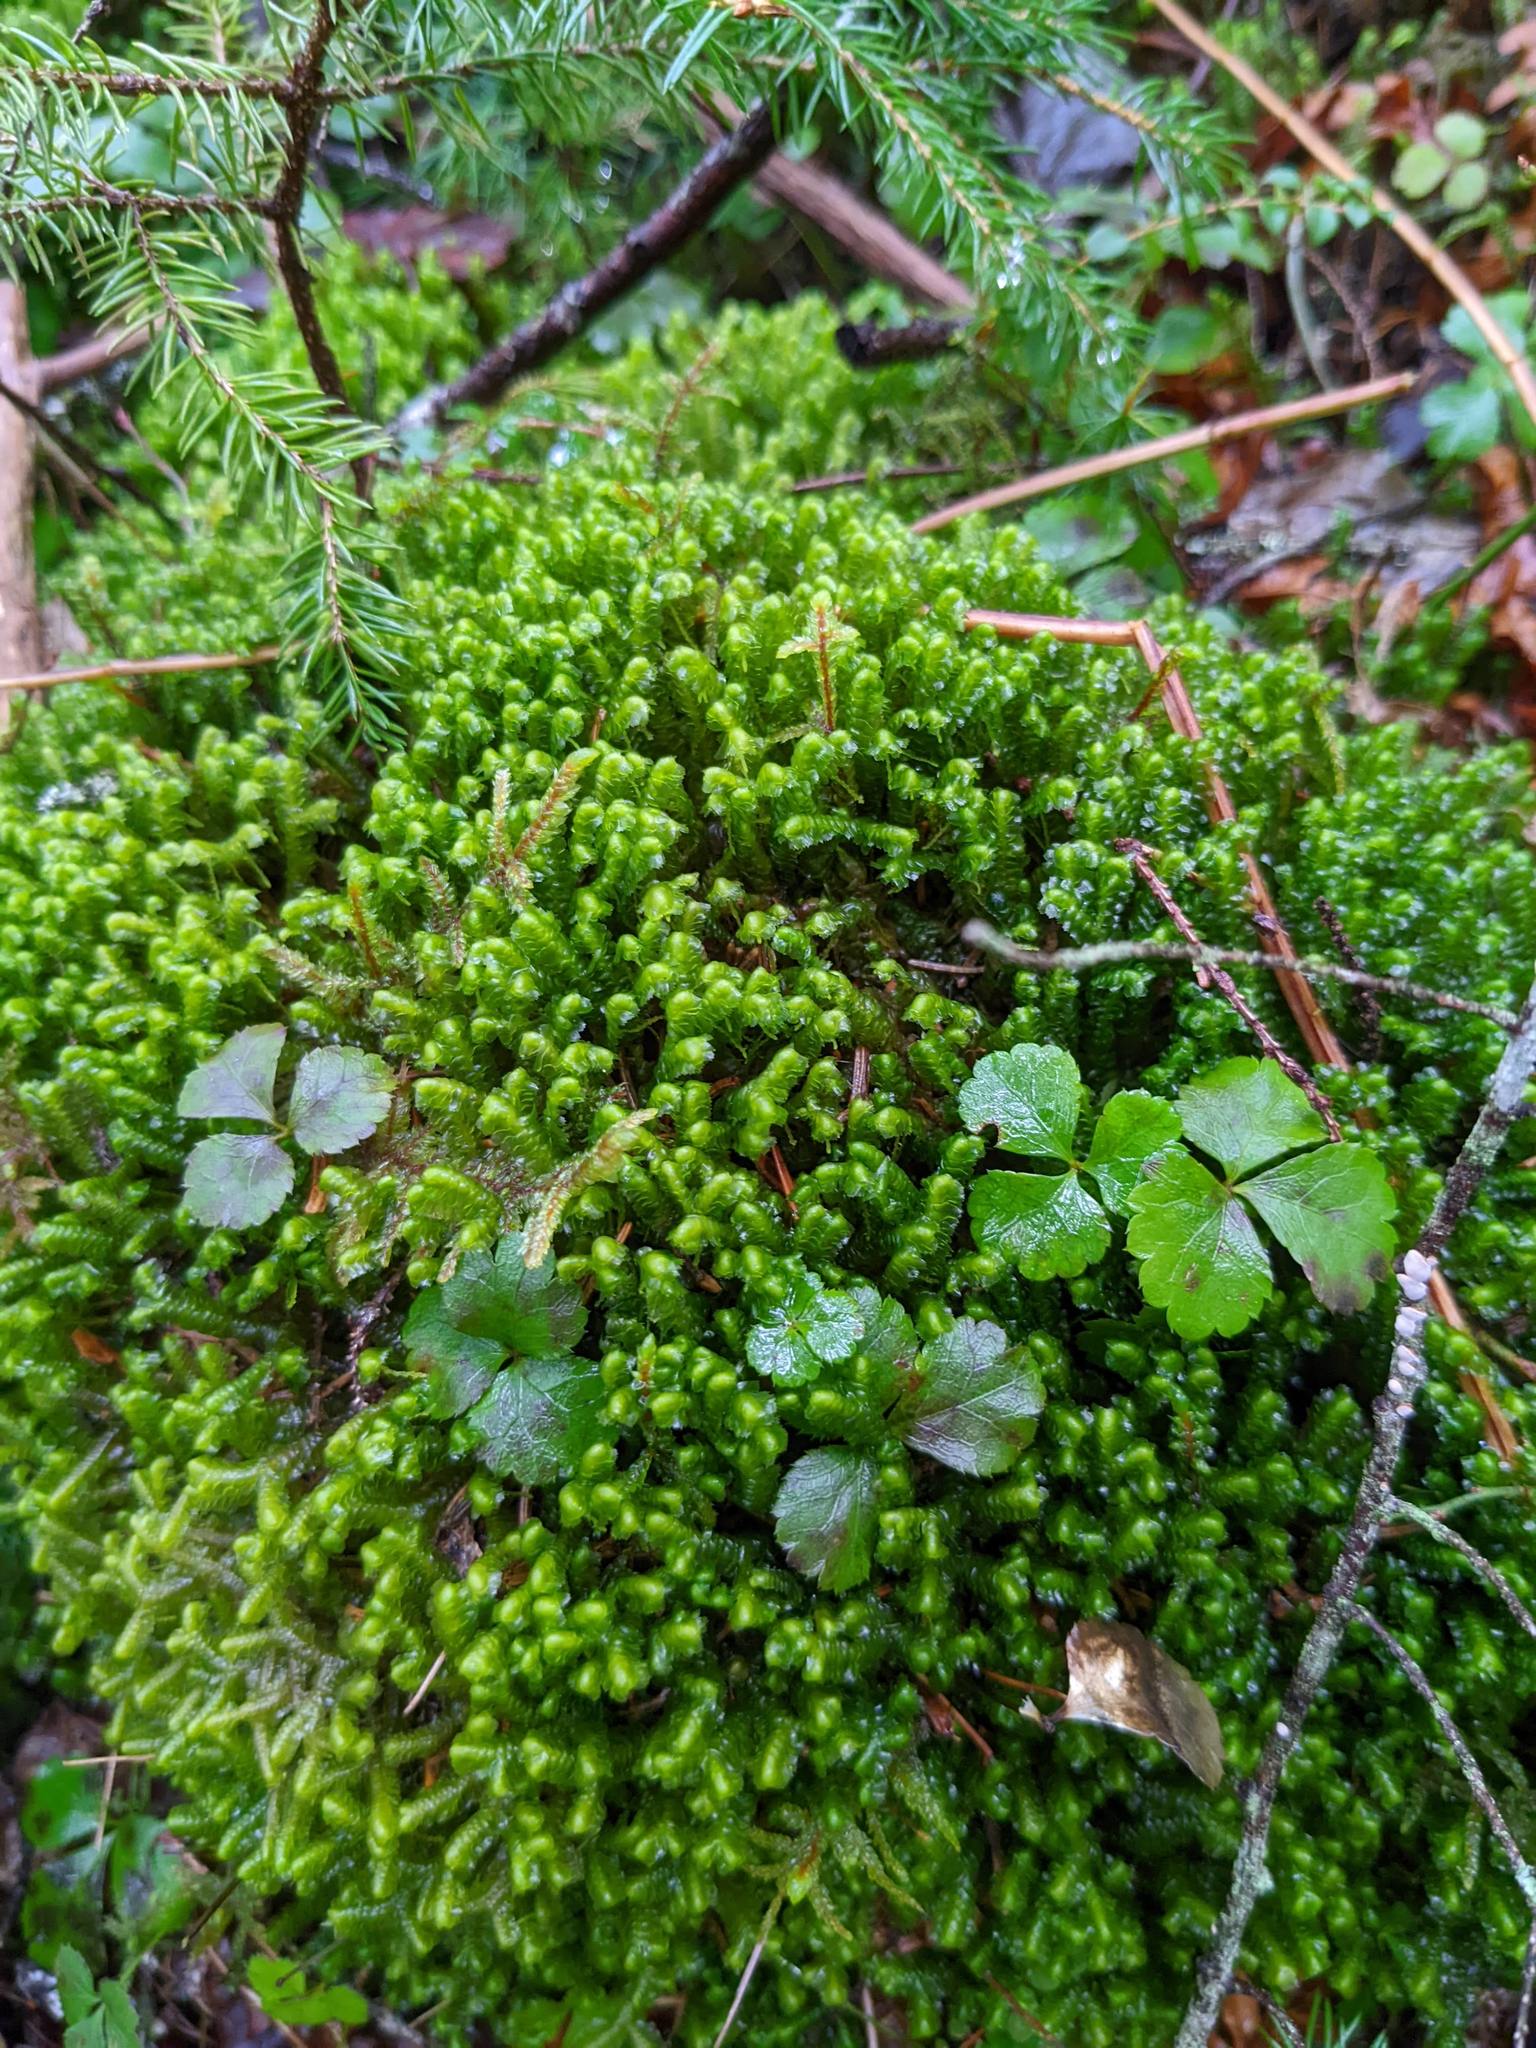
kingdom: Plantae
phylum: Tracheophyta
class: Magnoliopsida
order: Ranunculales
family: Ranunculaceae
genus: Coptis
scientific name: Coptis trifolia
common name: Canker-root
